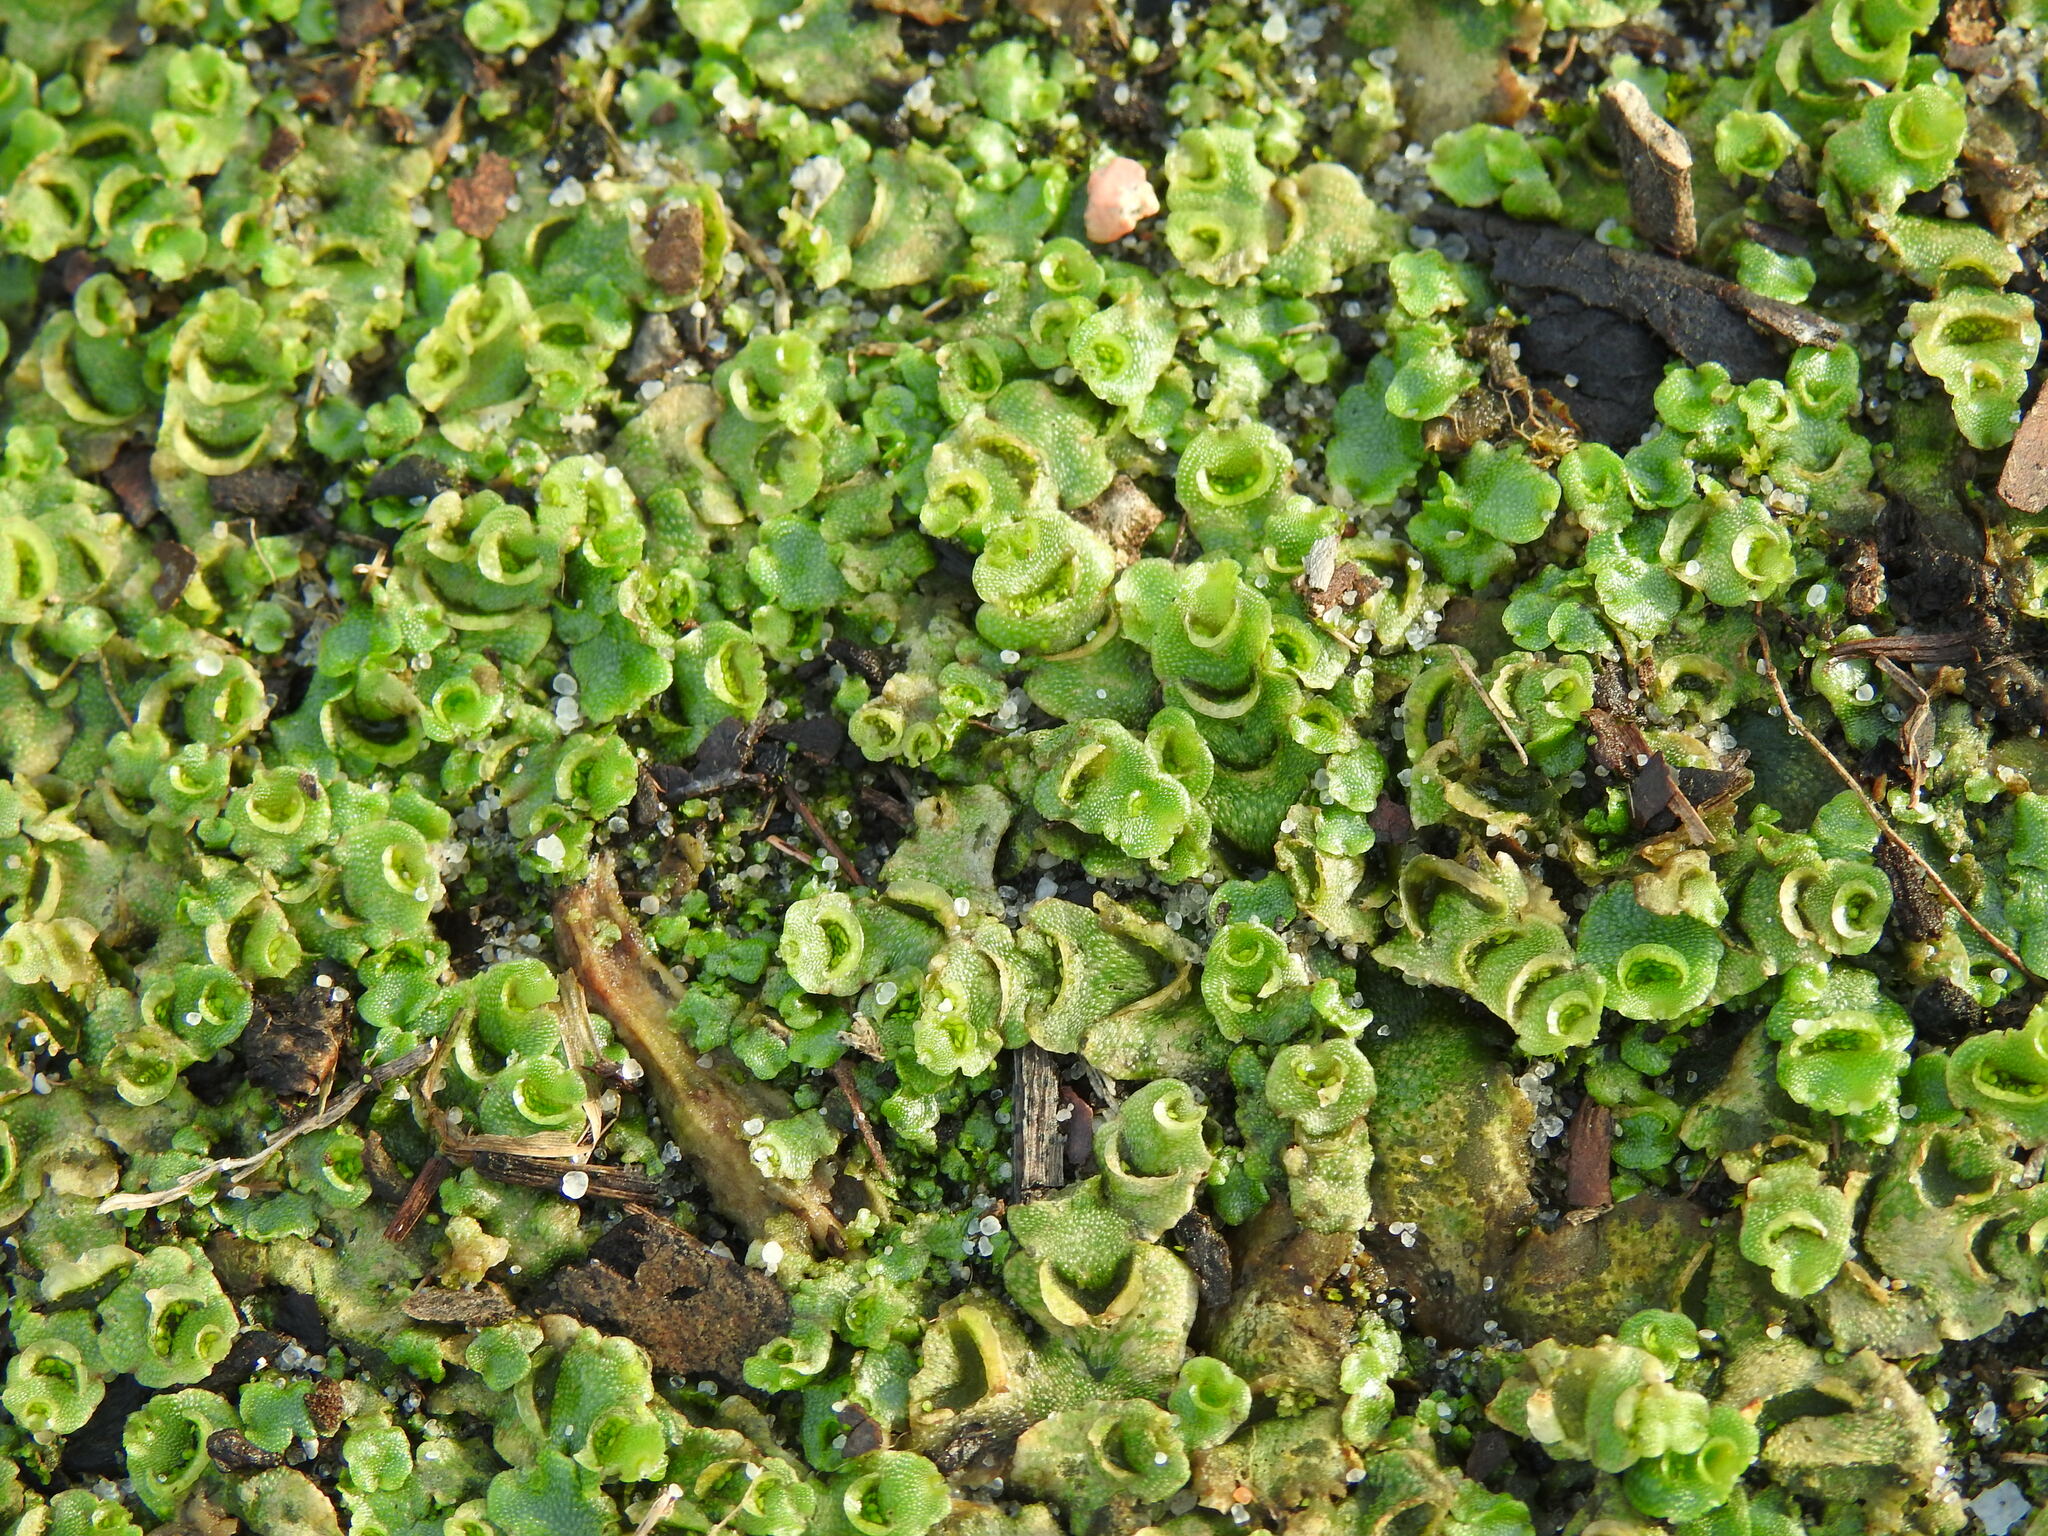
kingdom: Plantae
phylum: Marchantiophyta
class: Marchantiopsida
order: Lunulariales
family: Lunulariaceae
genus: Lunularia
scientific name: Lunularia cruciata
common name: Crescent-cup liverwort
